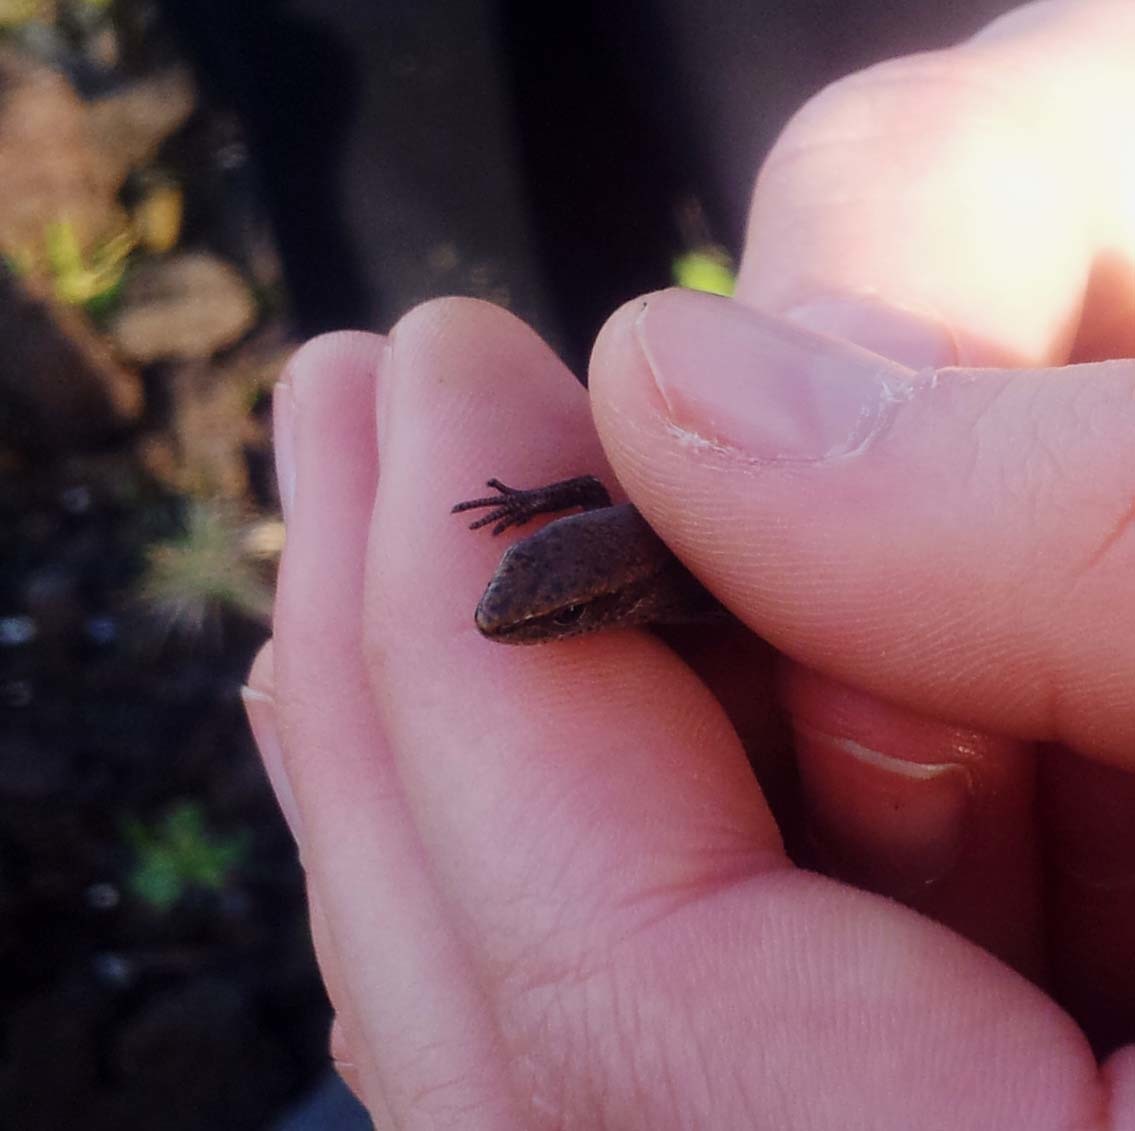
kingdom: Animalia
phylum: Chordata
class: Squamata
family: Scincidae
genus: Lampropholis
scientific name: Lampropholis delicata
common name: Plague skink
